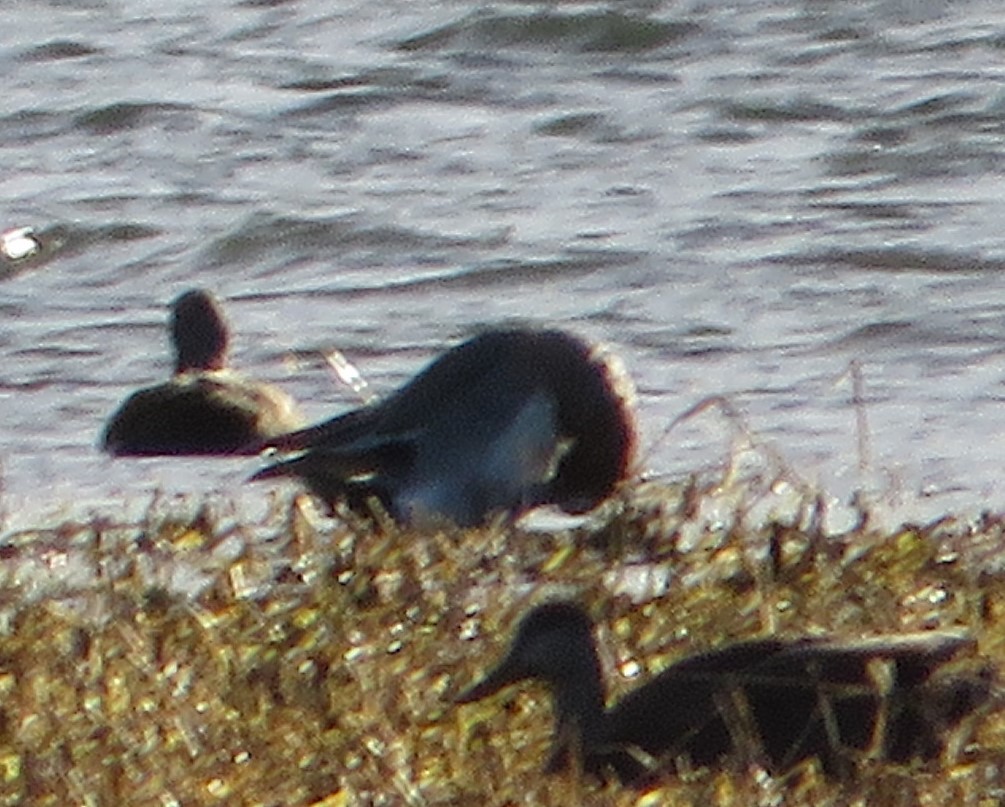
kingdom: Animalia
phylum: Chordata
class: Aves
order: Anseriformes
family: Anatidae
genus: Anas
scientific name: Anas crecca
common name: Eurasian teal
